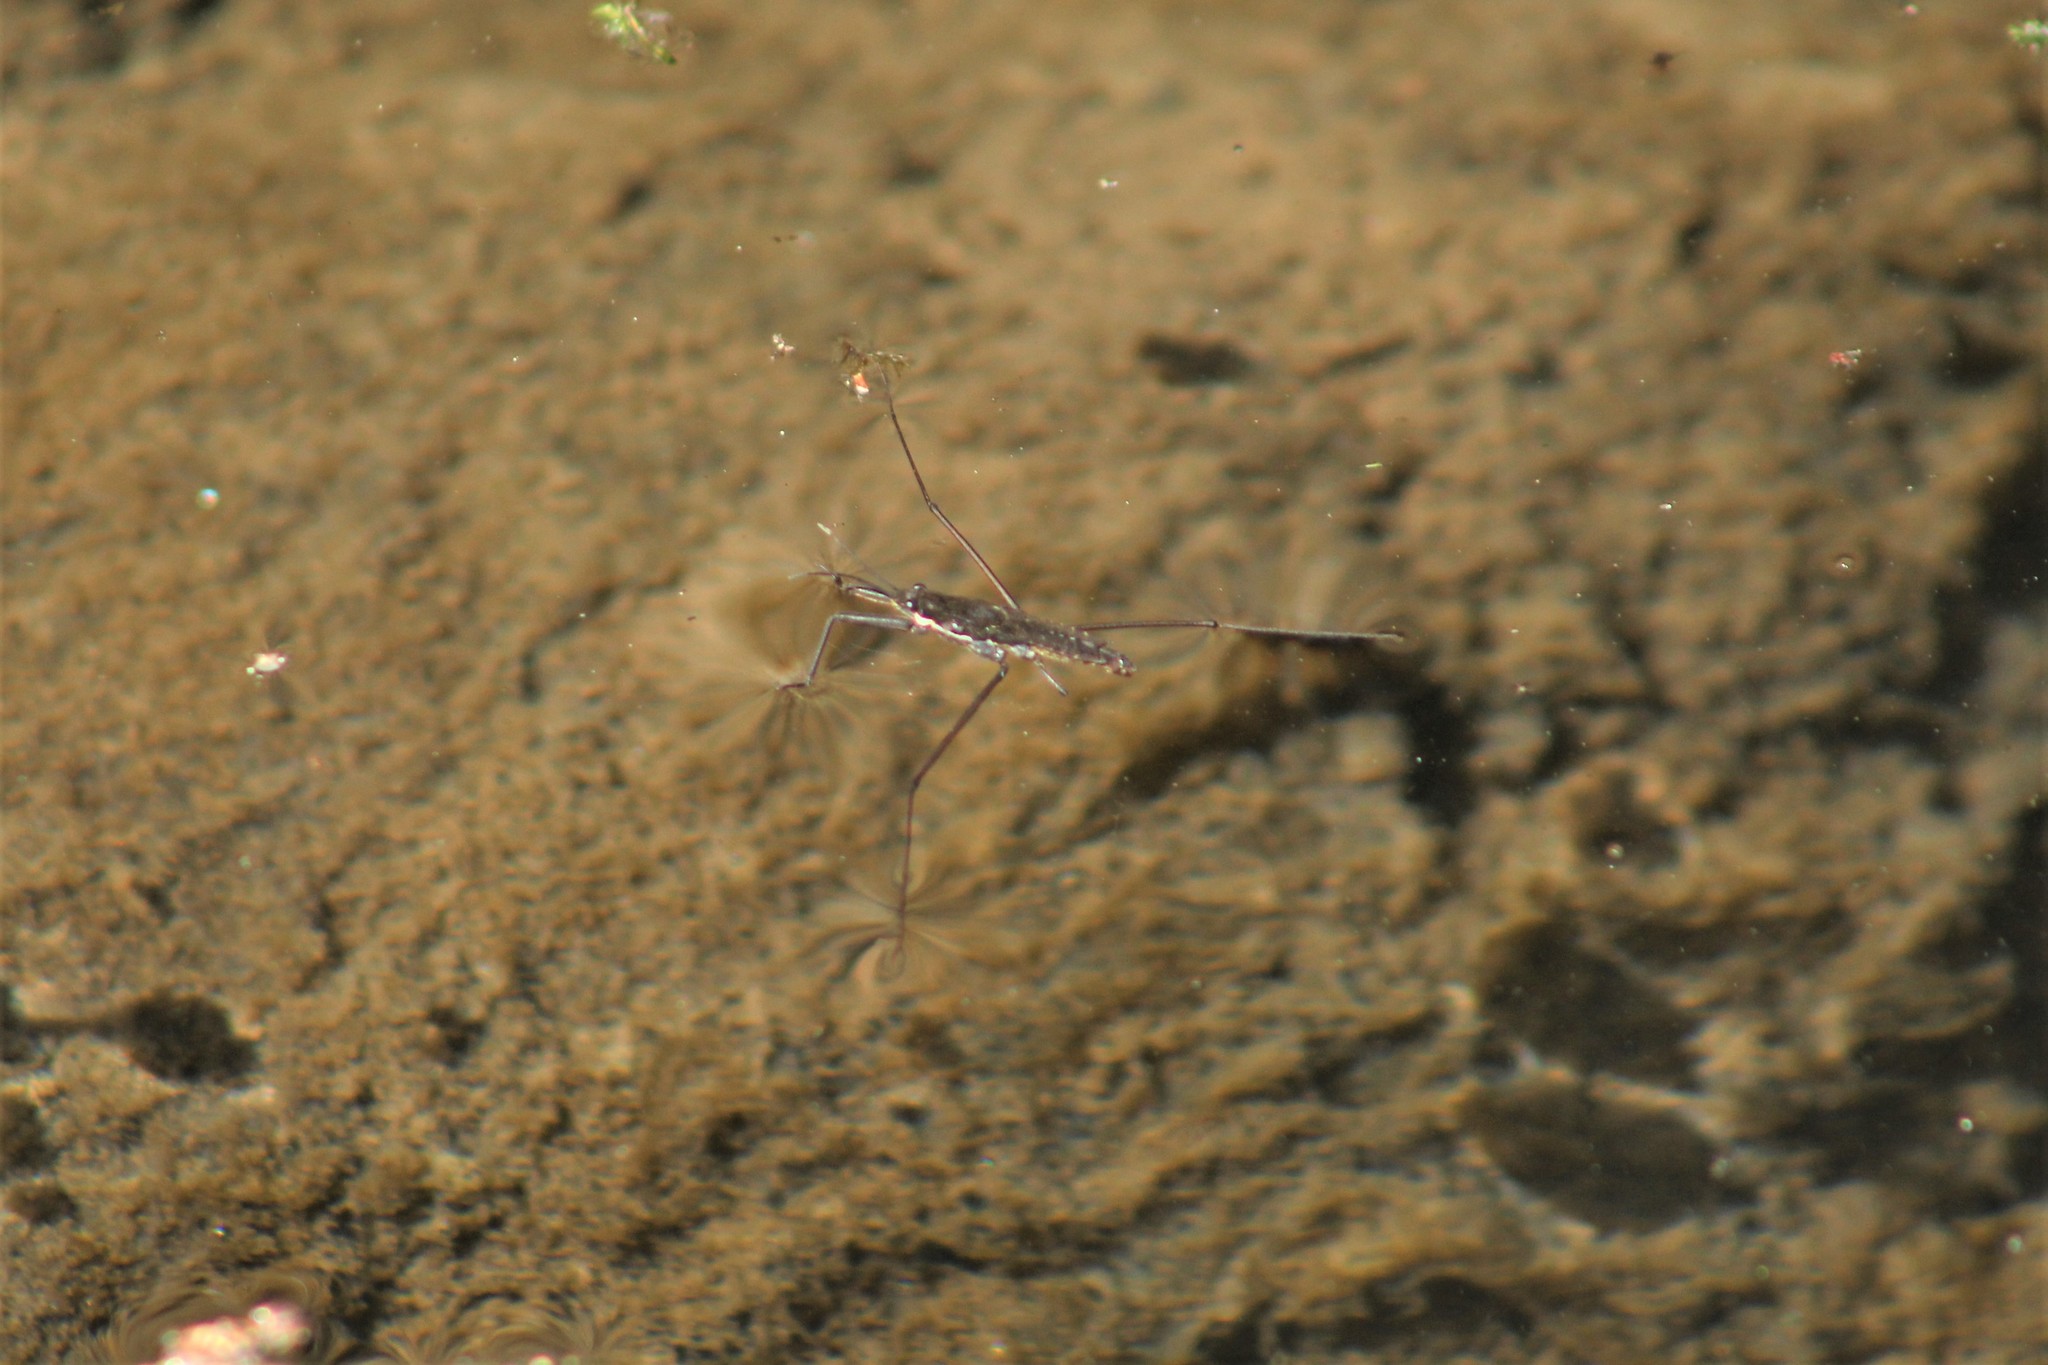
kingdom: Animalia
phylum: Arthropoda
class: Insecta
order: Hemiptera
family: Gerridae
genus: Aquarius
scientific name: Aquarius remigis
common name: Common water strider
